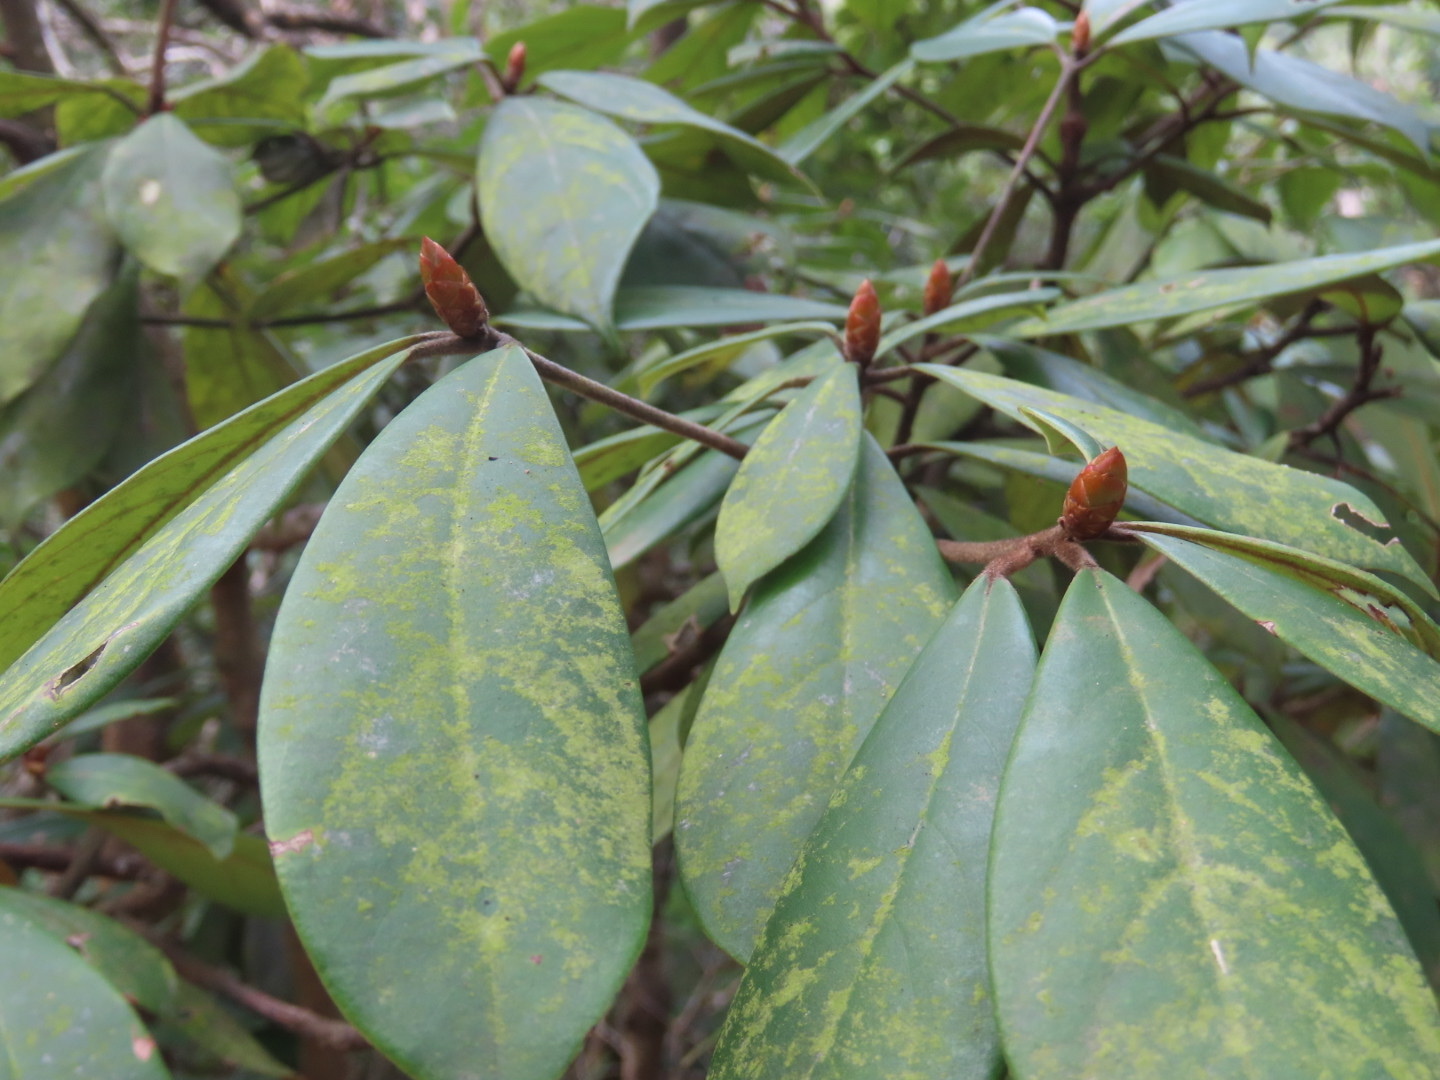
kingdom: Plantae
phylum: Tracheophyta
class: Magnoliopsida
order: Laurales
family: Lauraceae
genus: Machilus
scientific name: Machilus velutina
